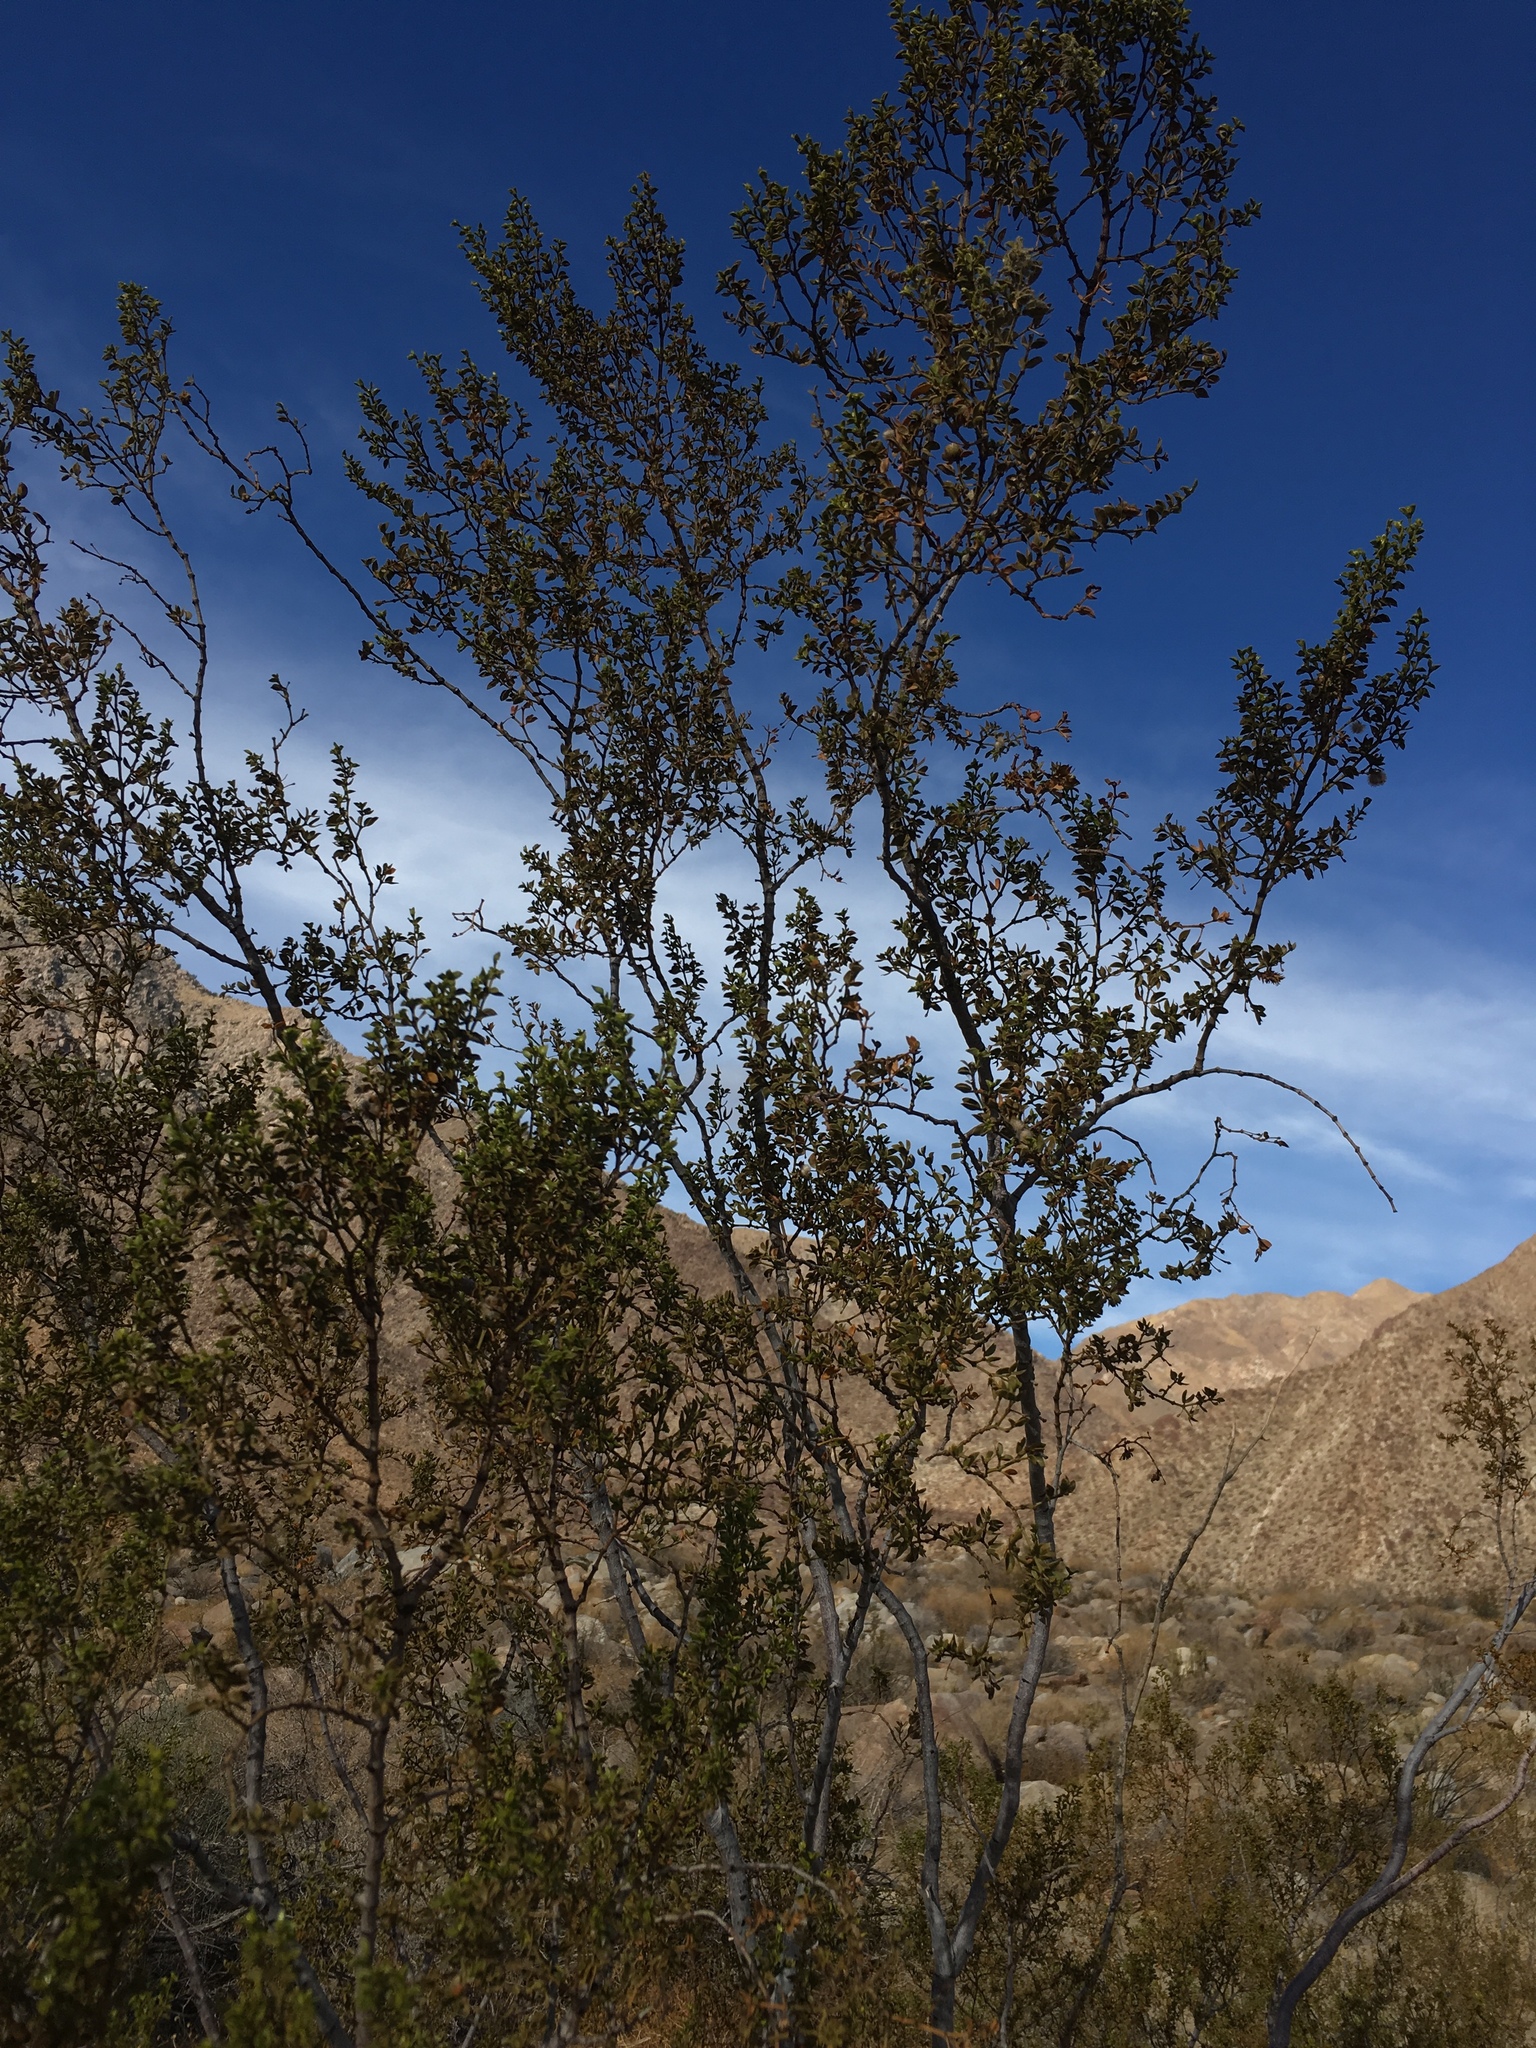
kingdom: Animalia
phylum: Arthropoda
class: Insecta
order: Diptera
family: Cecidomyiidae
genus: Asphondylia
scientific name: Asphondylia auripila
